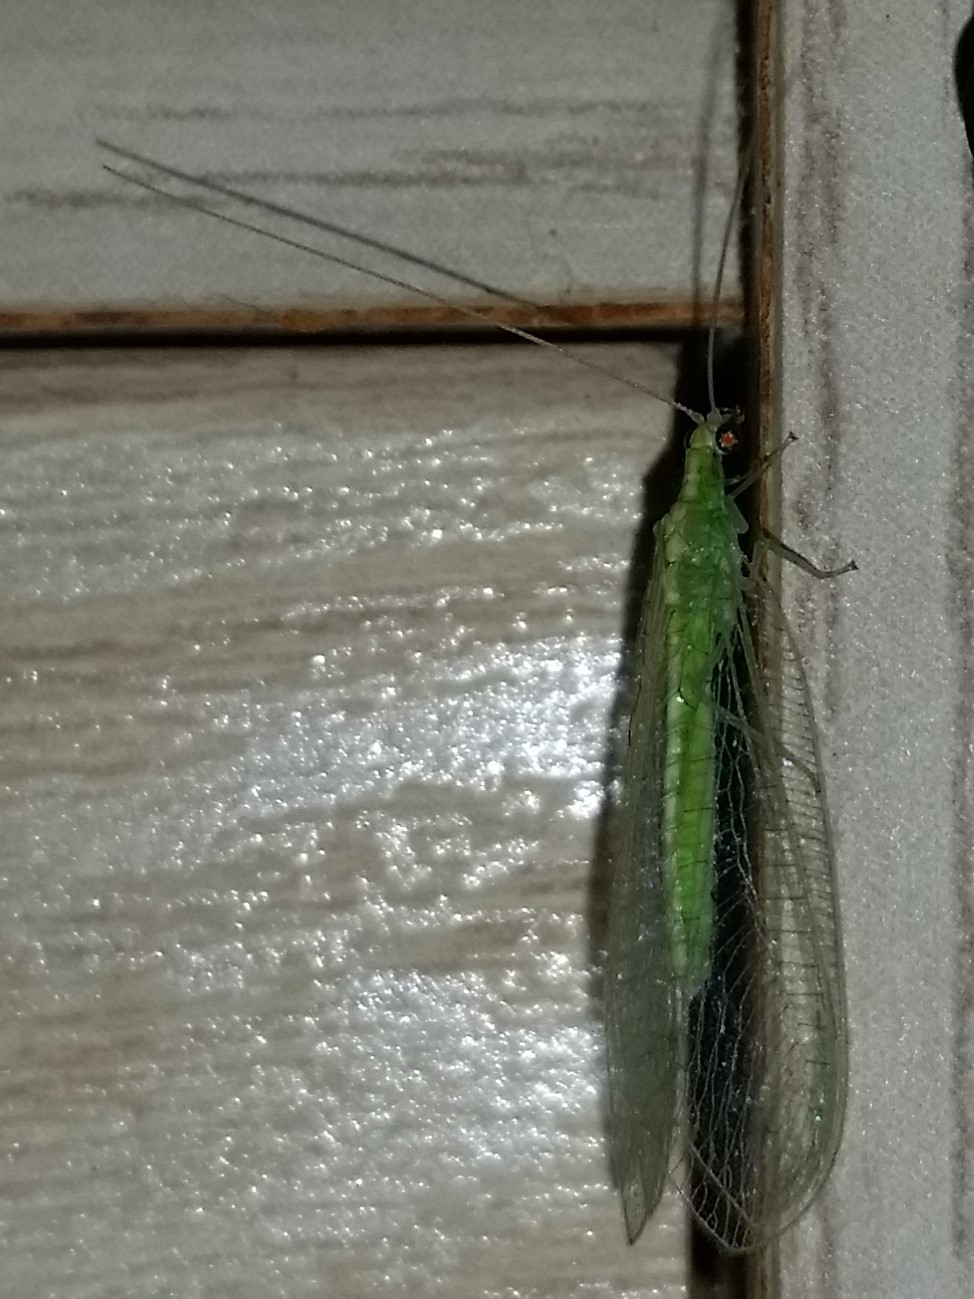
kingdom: Animalia
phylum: Arthropoda
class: Insecta
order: Neuroptera
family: Chrysopidae
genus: Chrysoperla
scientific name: Chrysoperla
